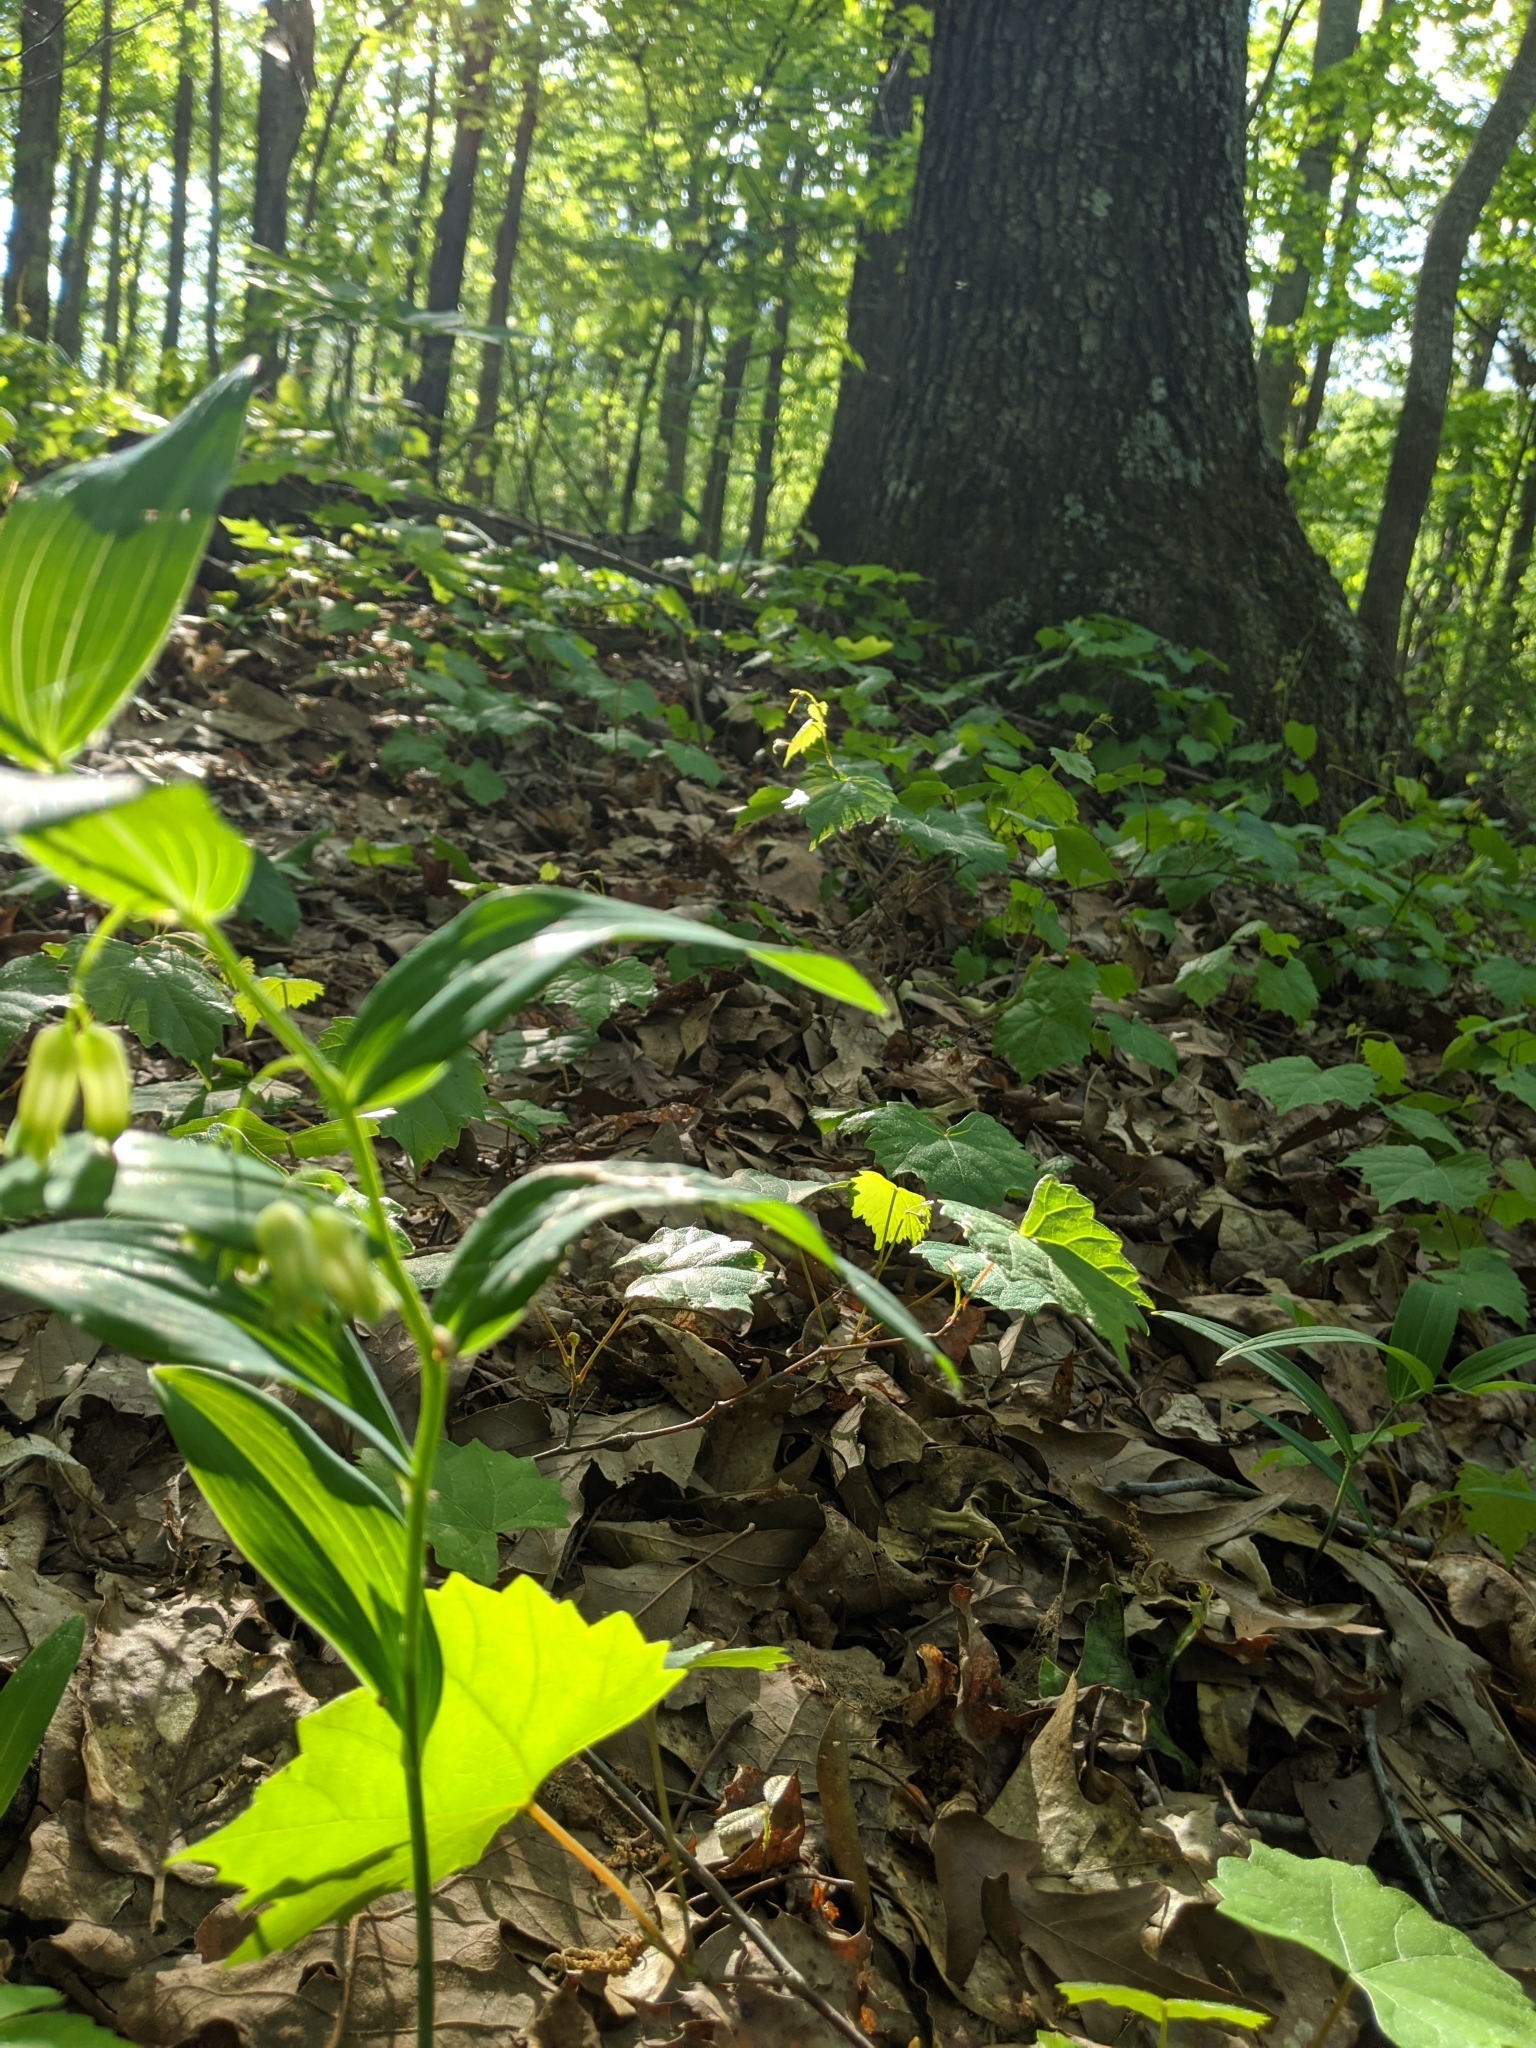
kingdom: Plantae
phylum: Tracheophyta
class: Liliopsida
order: Asparagales
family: Asparagaceae
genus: Polygonatum
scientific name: Polygonatum biflorum
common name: American solomon's-seal
